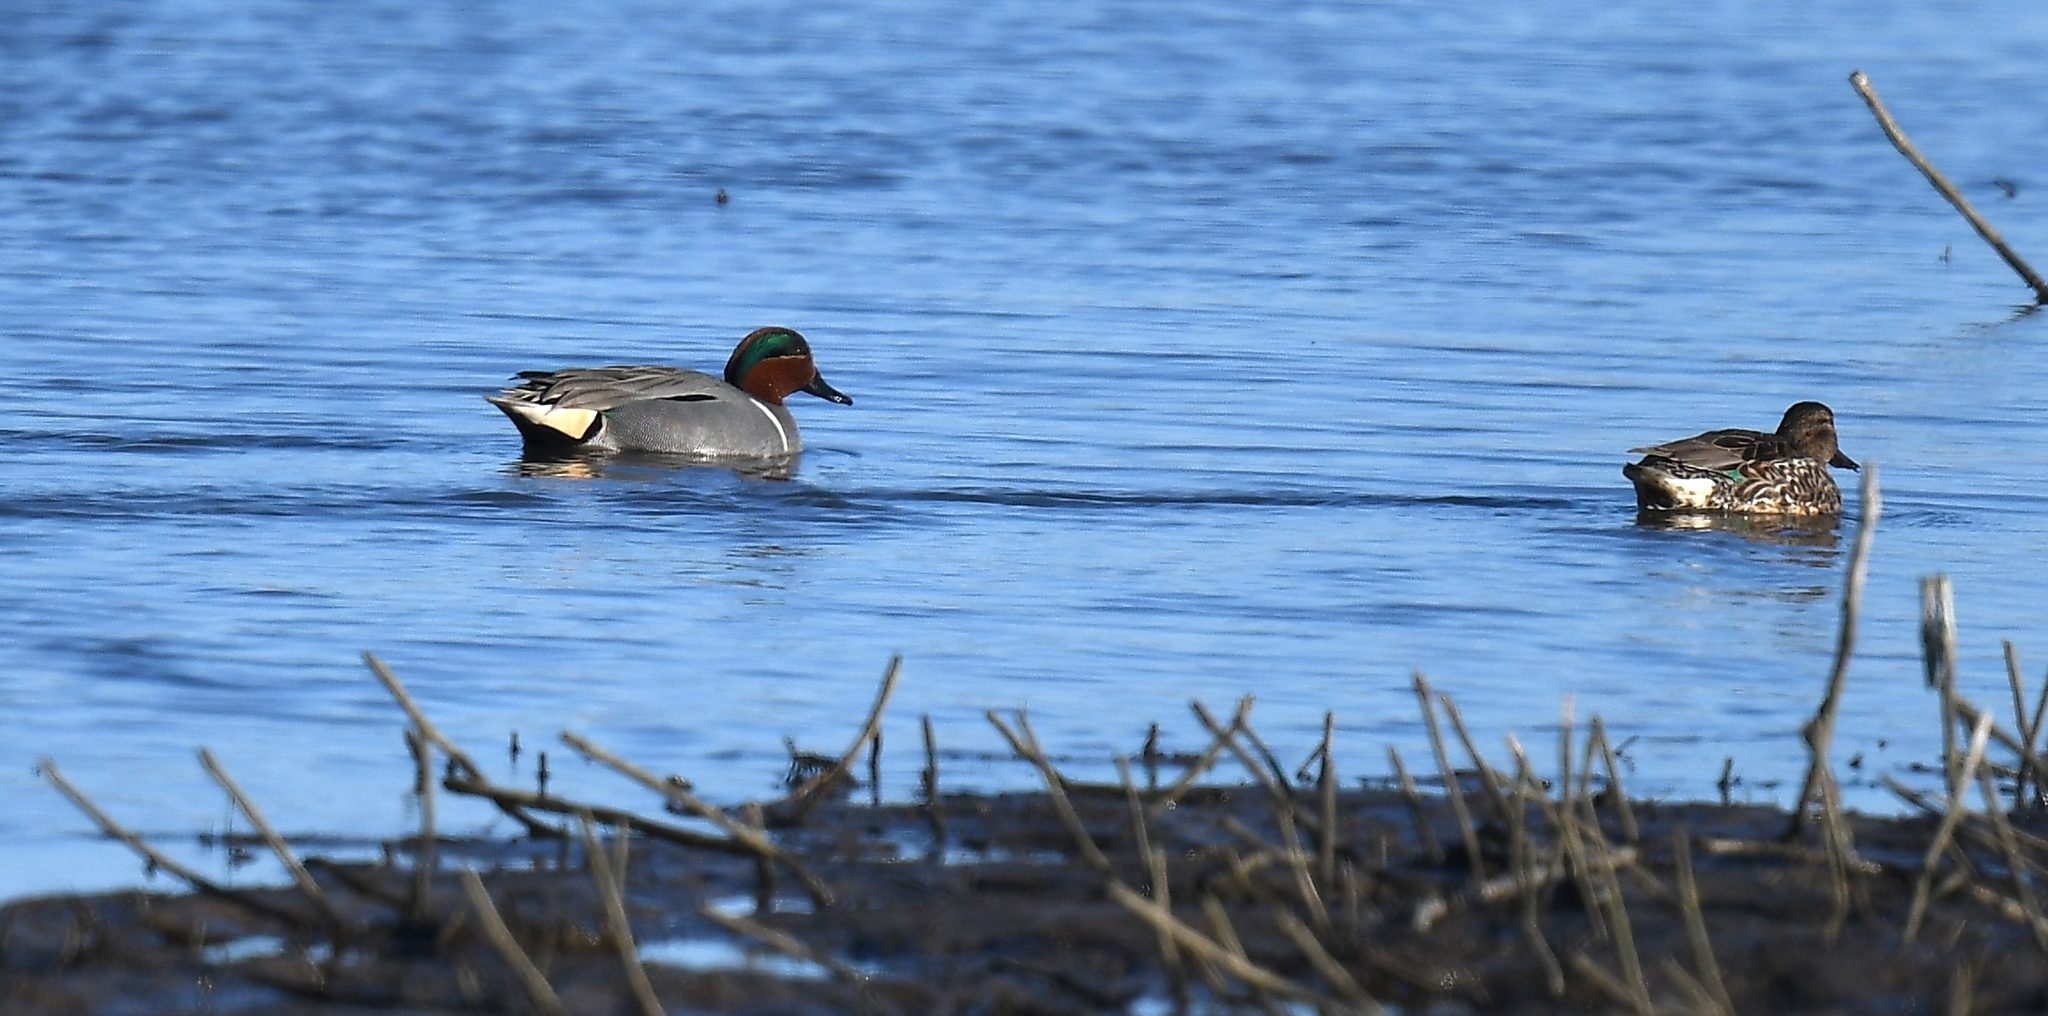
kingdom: Animalia
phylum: Chordata
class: Aves
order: Anseriformes
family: Anatidae
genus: Anas
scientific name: Anas crecca
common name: Eurasian teal
